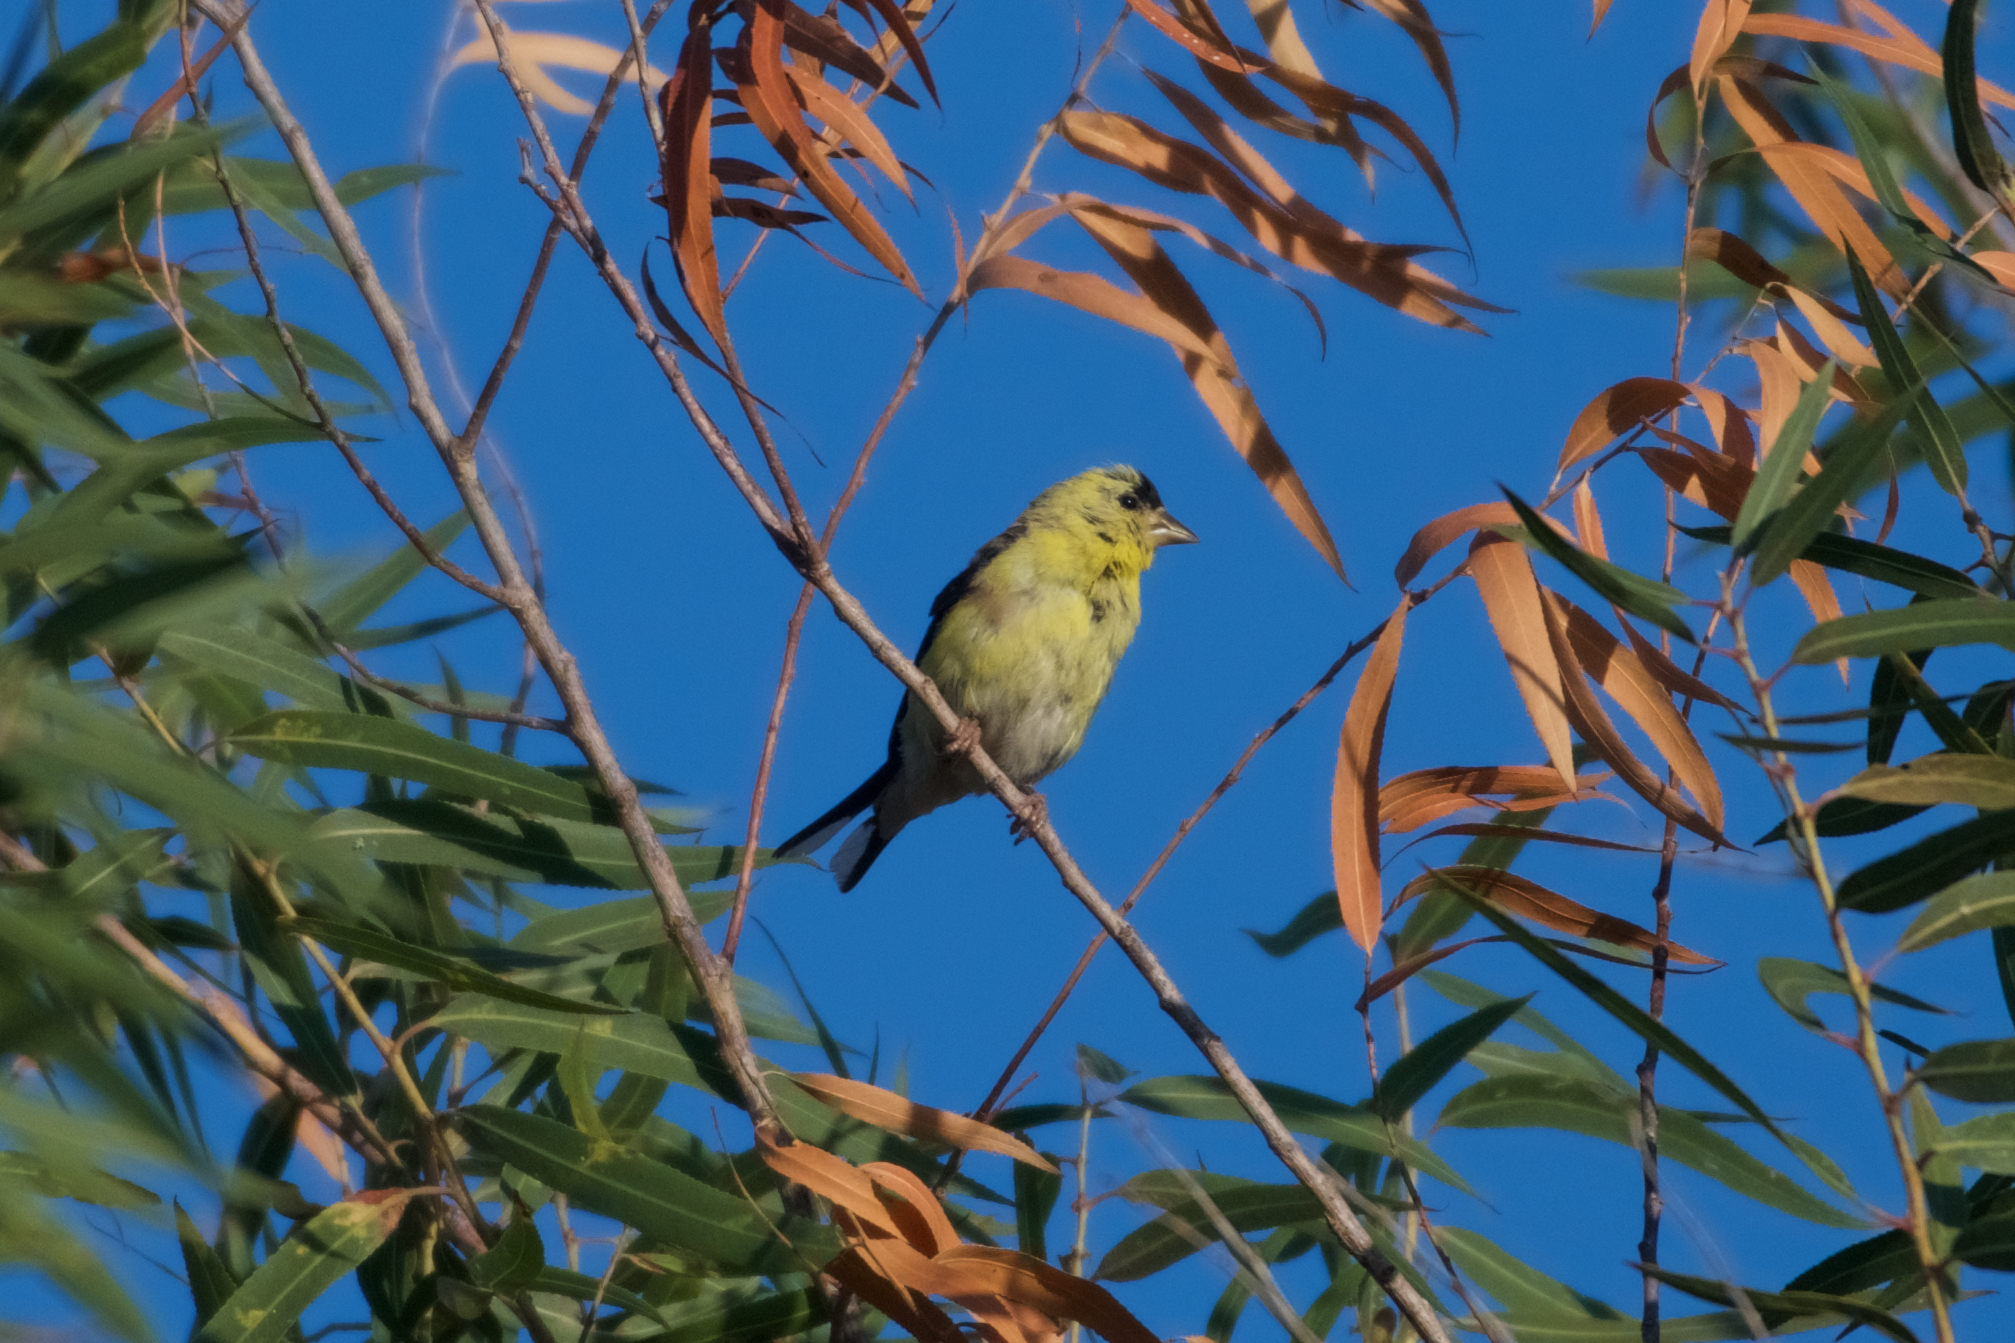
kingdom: Animalia
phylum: Chordata
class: Aves
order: Passeriformes
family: Fringillidae
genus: Spinus
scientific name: Spinus tristis
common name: American goldfinch
